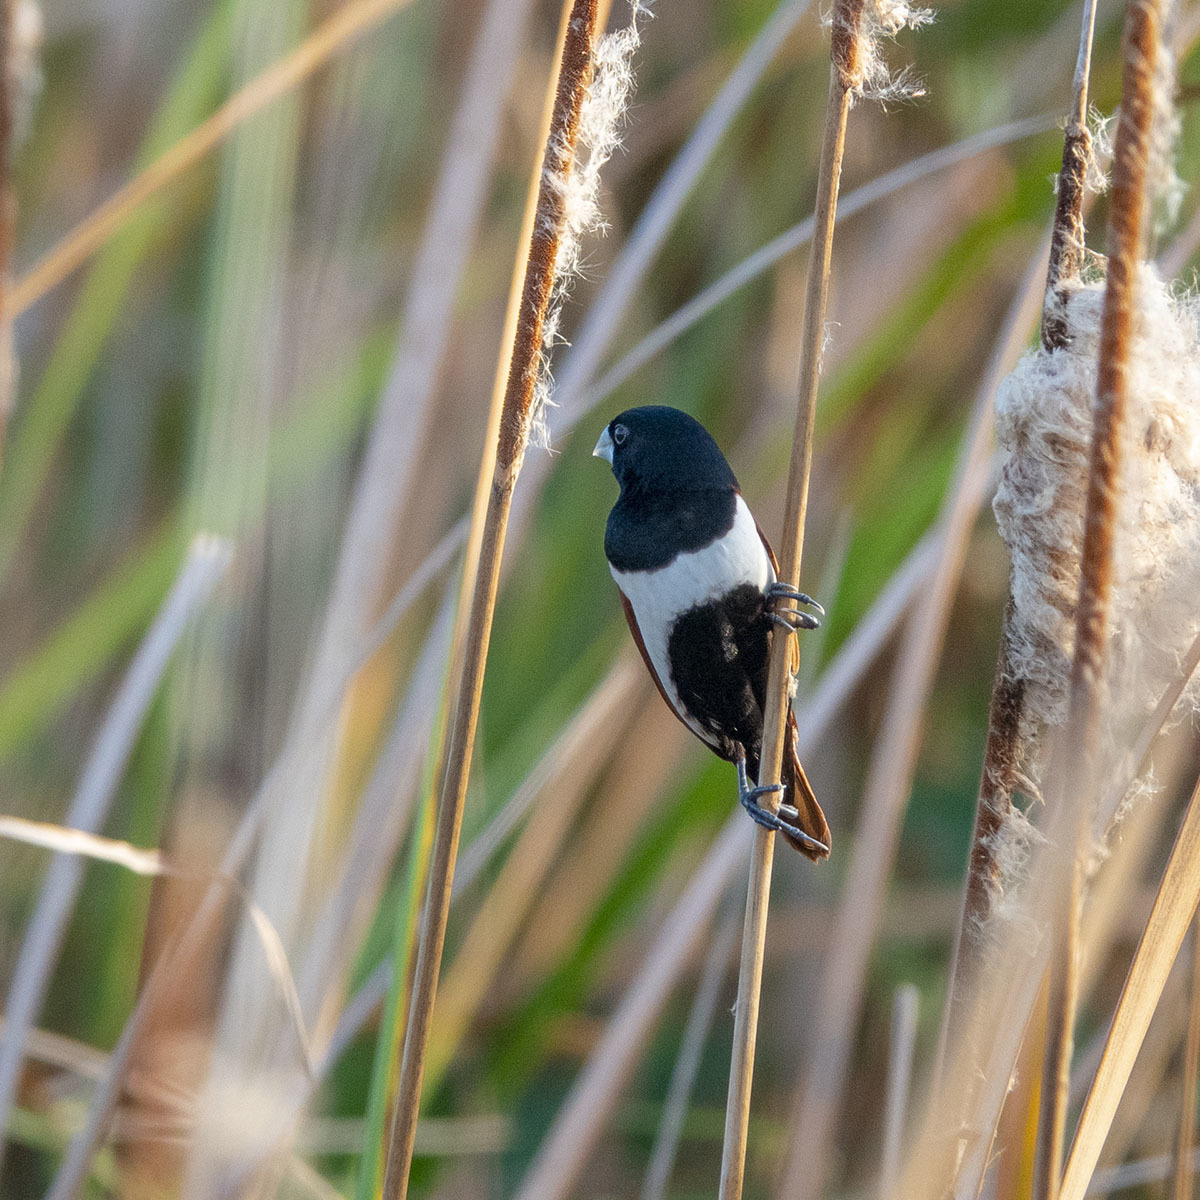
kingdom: Animalia
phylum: Chordata
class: Aves
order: Passeriformes
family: Estrildidae
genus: Lonchura
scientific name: Lonchura malacca
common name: Tricolored munia
